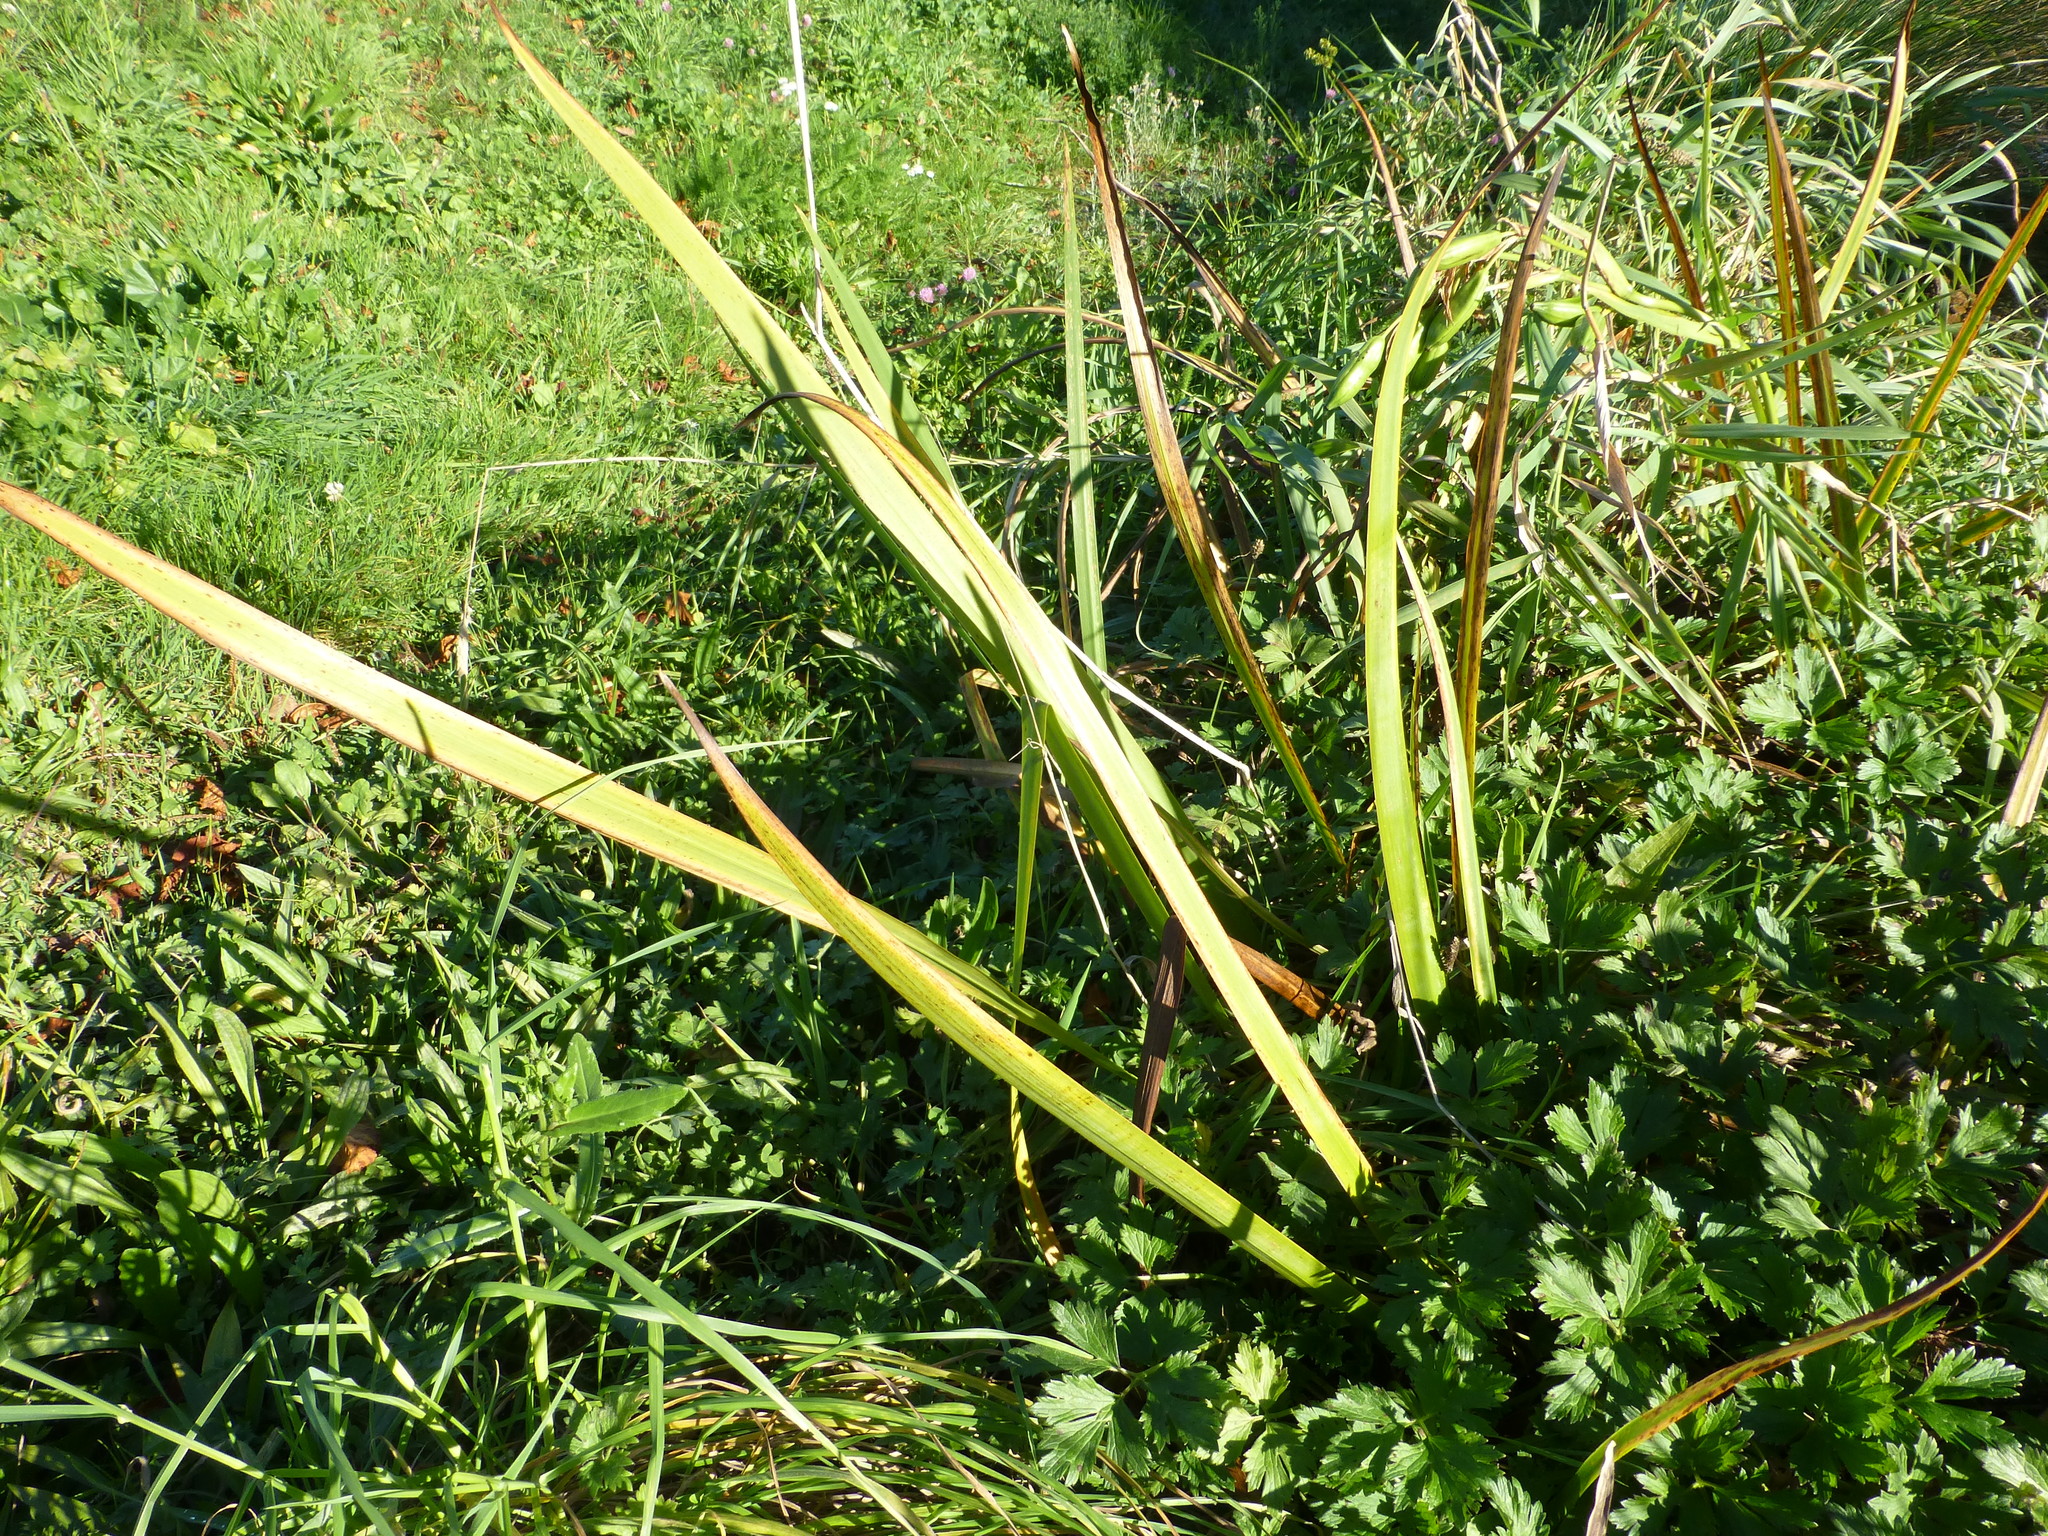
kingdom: Plantae
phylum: Tracheophyta
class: Liliopsida
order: Asparagales
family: Iridaceae
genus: Iris
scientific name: Iris pseudacorus
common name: Yellow flag
